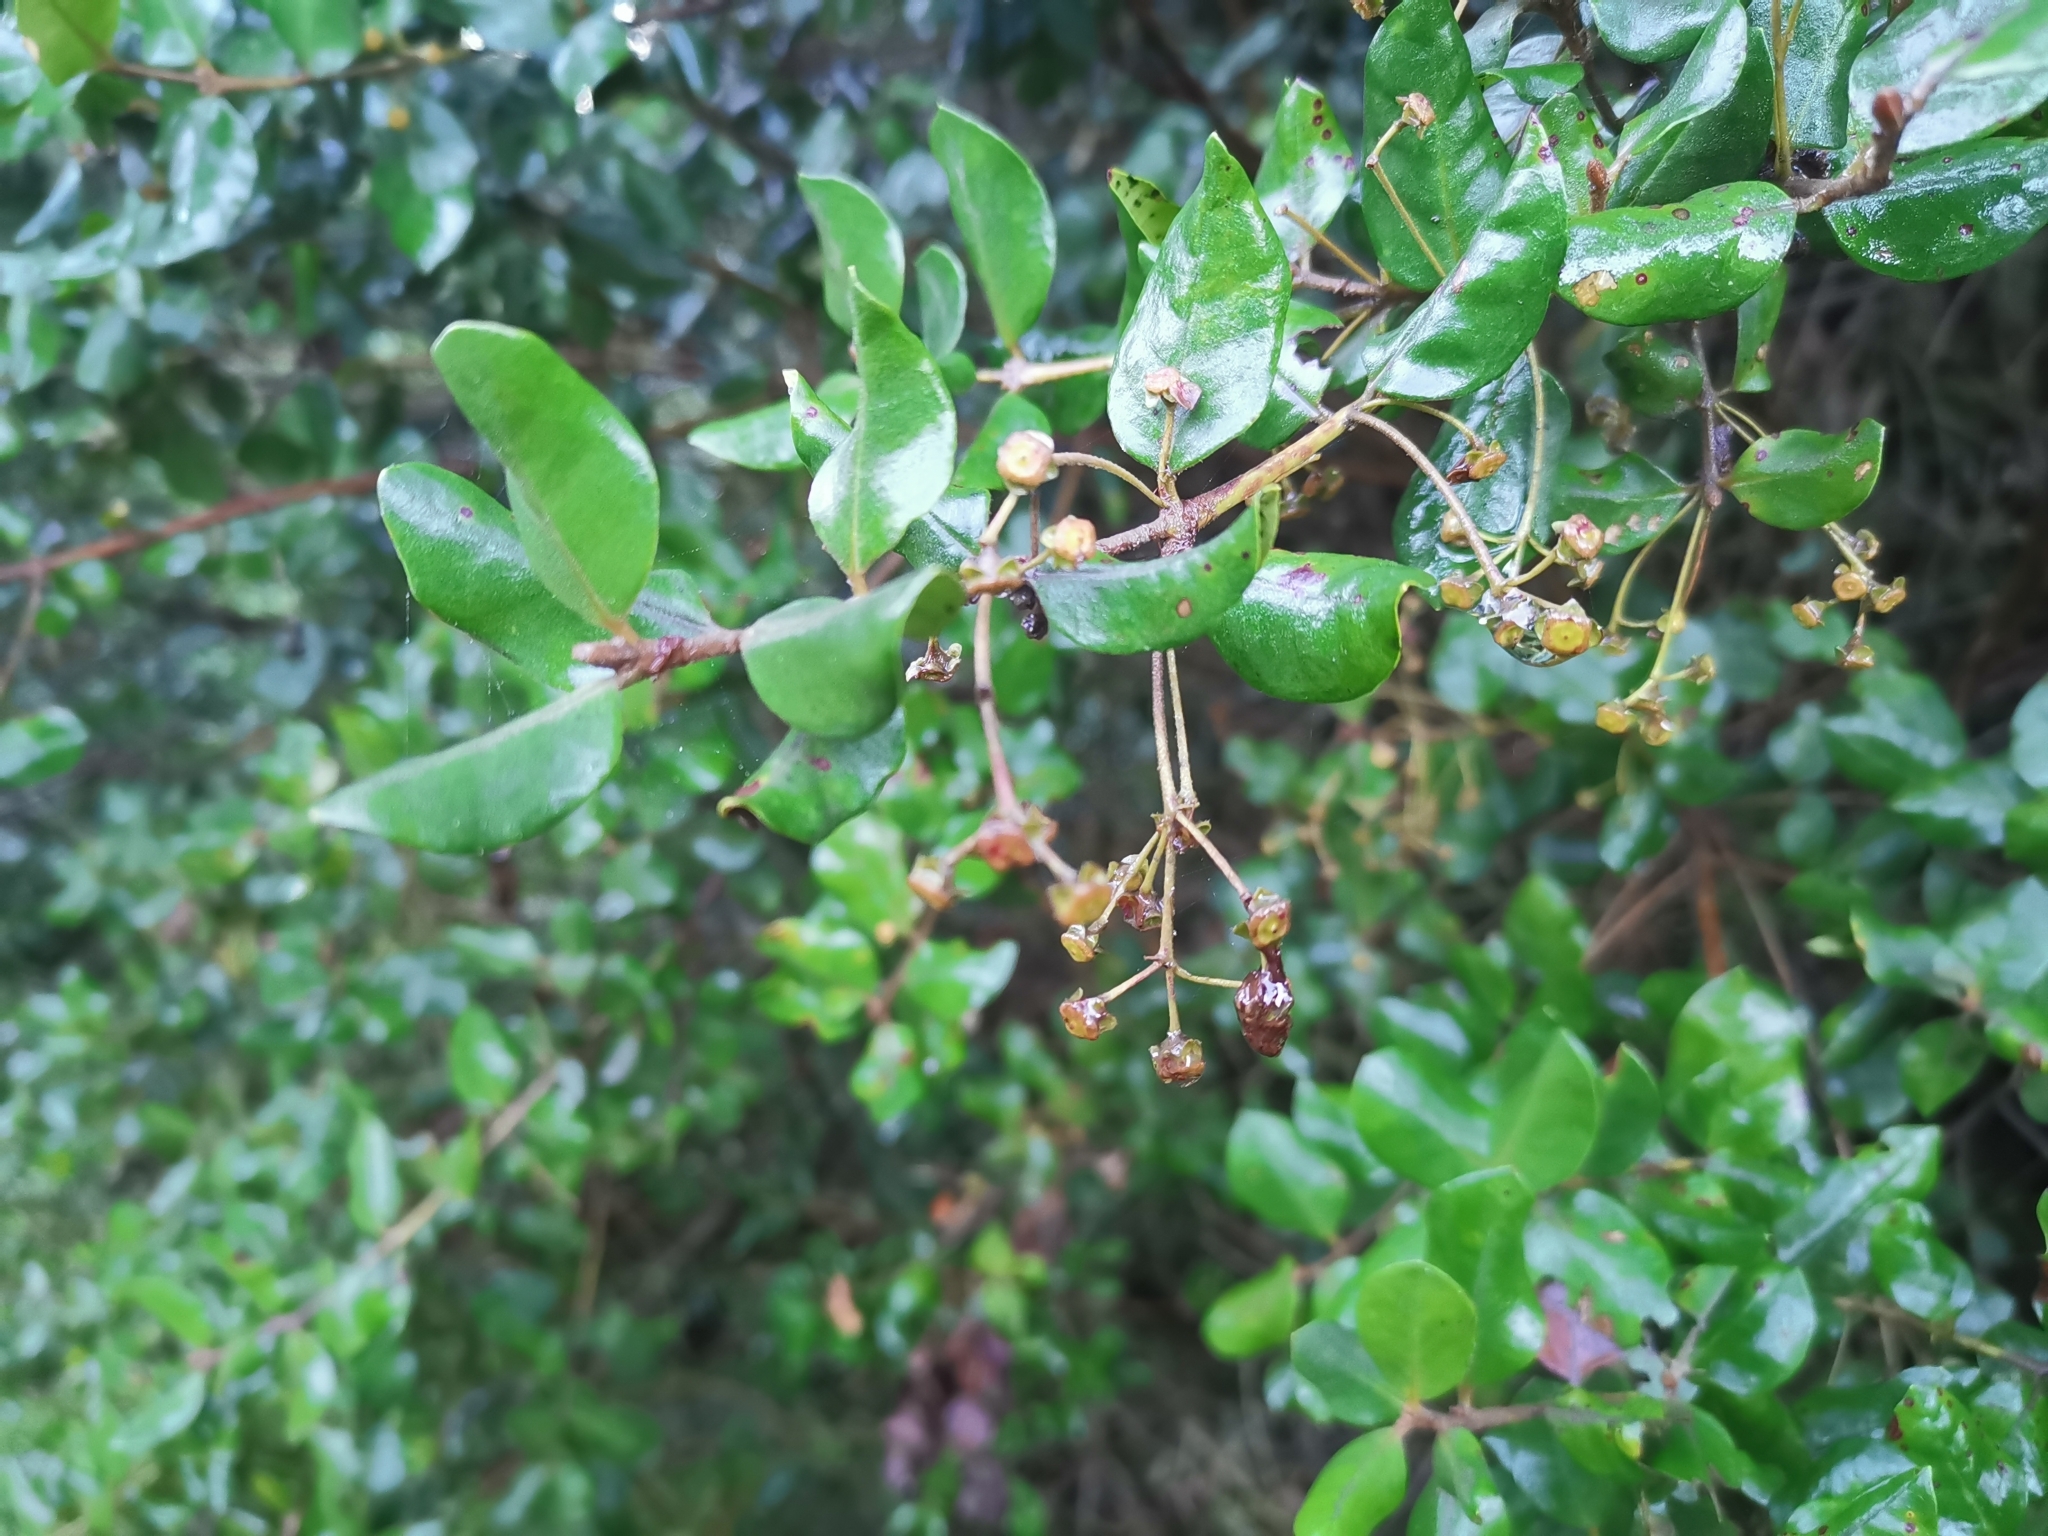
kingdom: Plantae
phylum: Tracheophyta
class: Magnoliopsida
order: Myrtales
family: Myrtaceae
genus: Myrceugenia
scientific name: Myrceugenia exsucca
